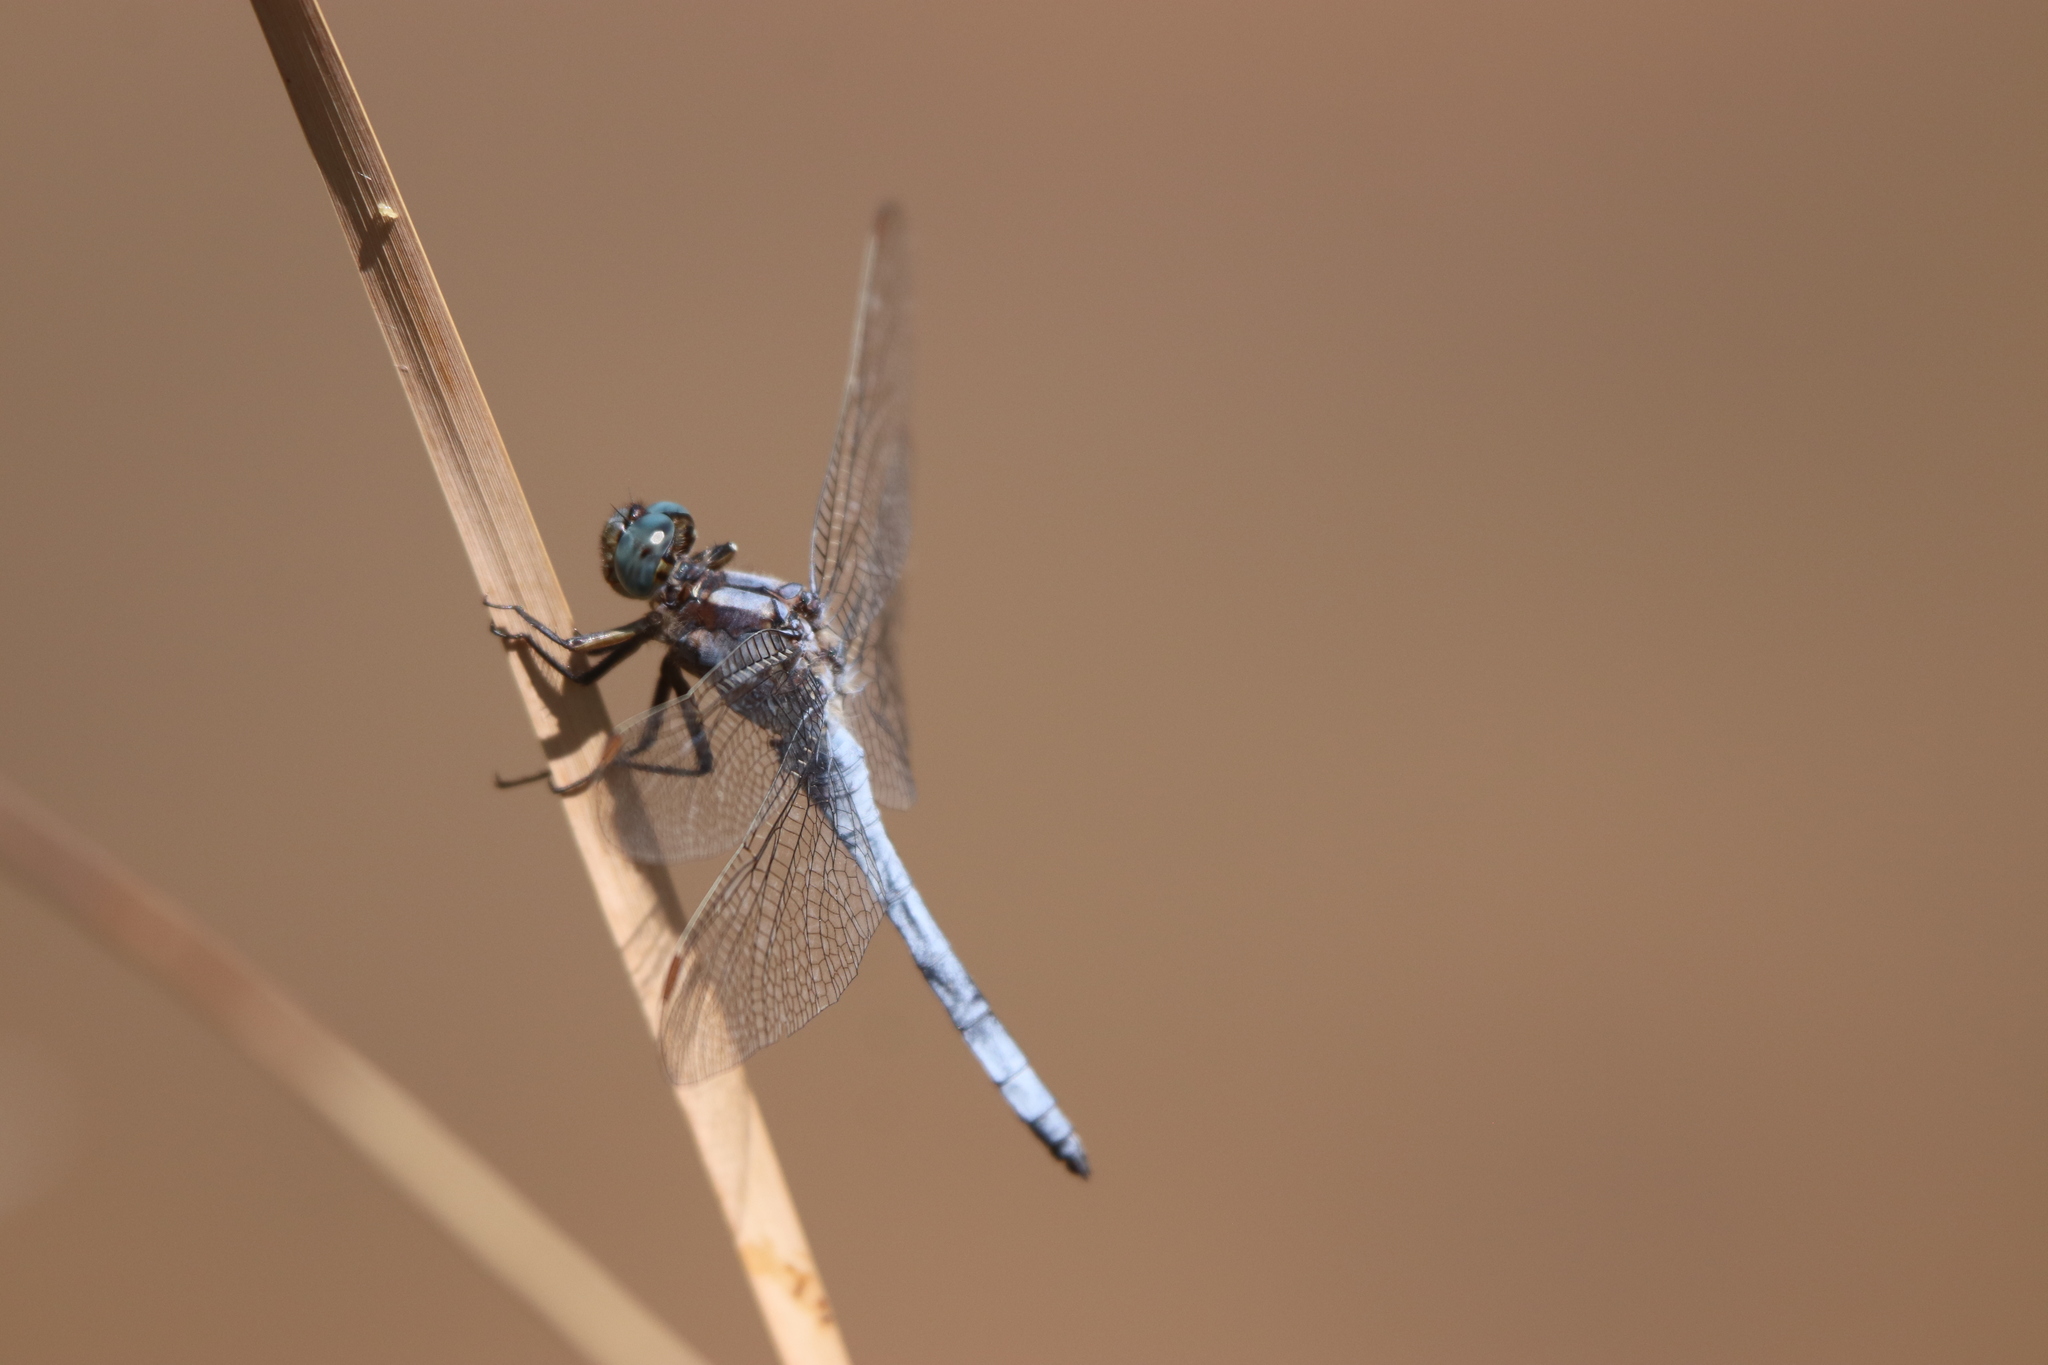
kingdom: Animalia
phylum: Arthropoda
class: Insecta
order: Odonata
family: Libellulidae
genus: Orthetrum
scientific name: Orthetrum coerulescens
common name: Keeled skimmer
